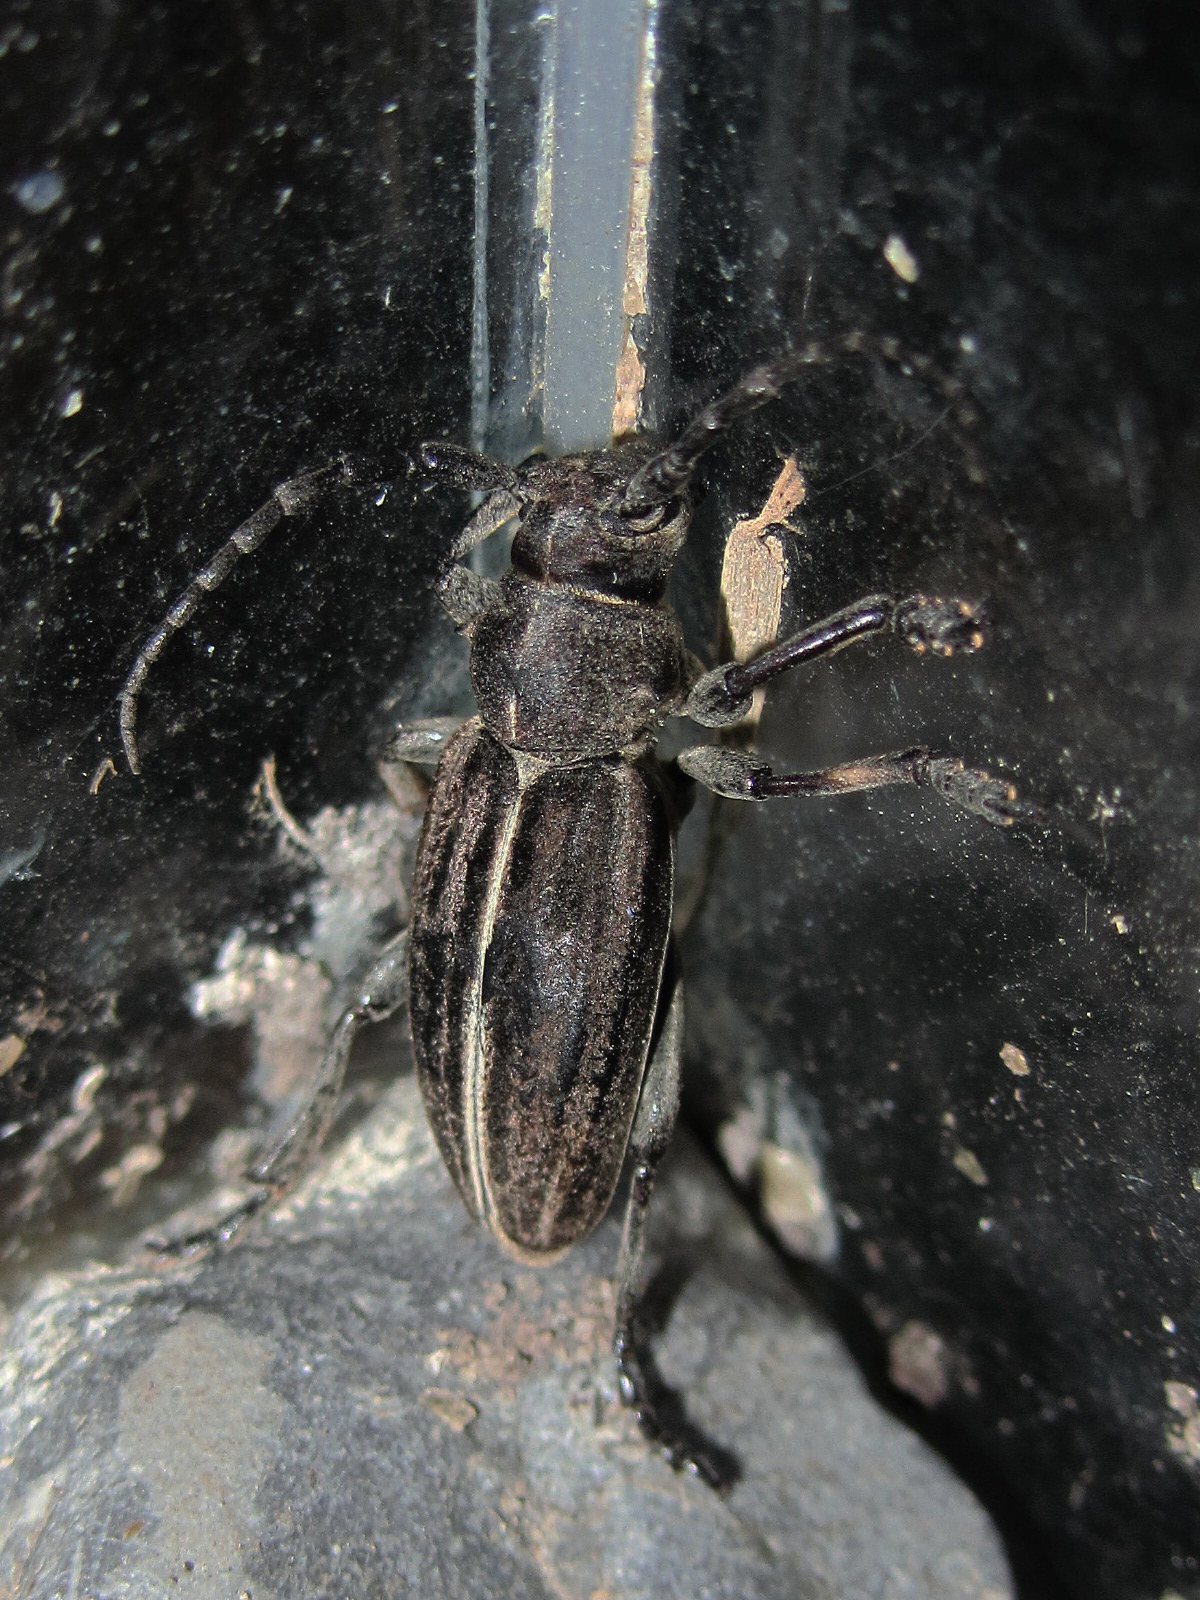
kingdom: Animalia
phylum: Arthropoda
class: Insecta
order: Coleoptera
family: Cerambycidae
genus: Dorcadion
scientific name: Dorcadion holosericeum
